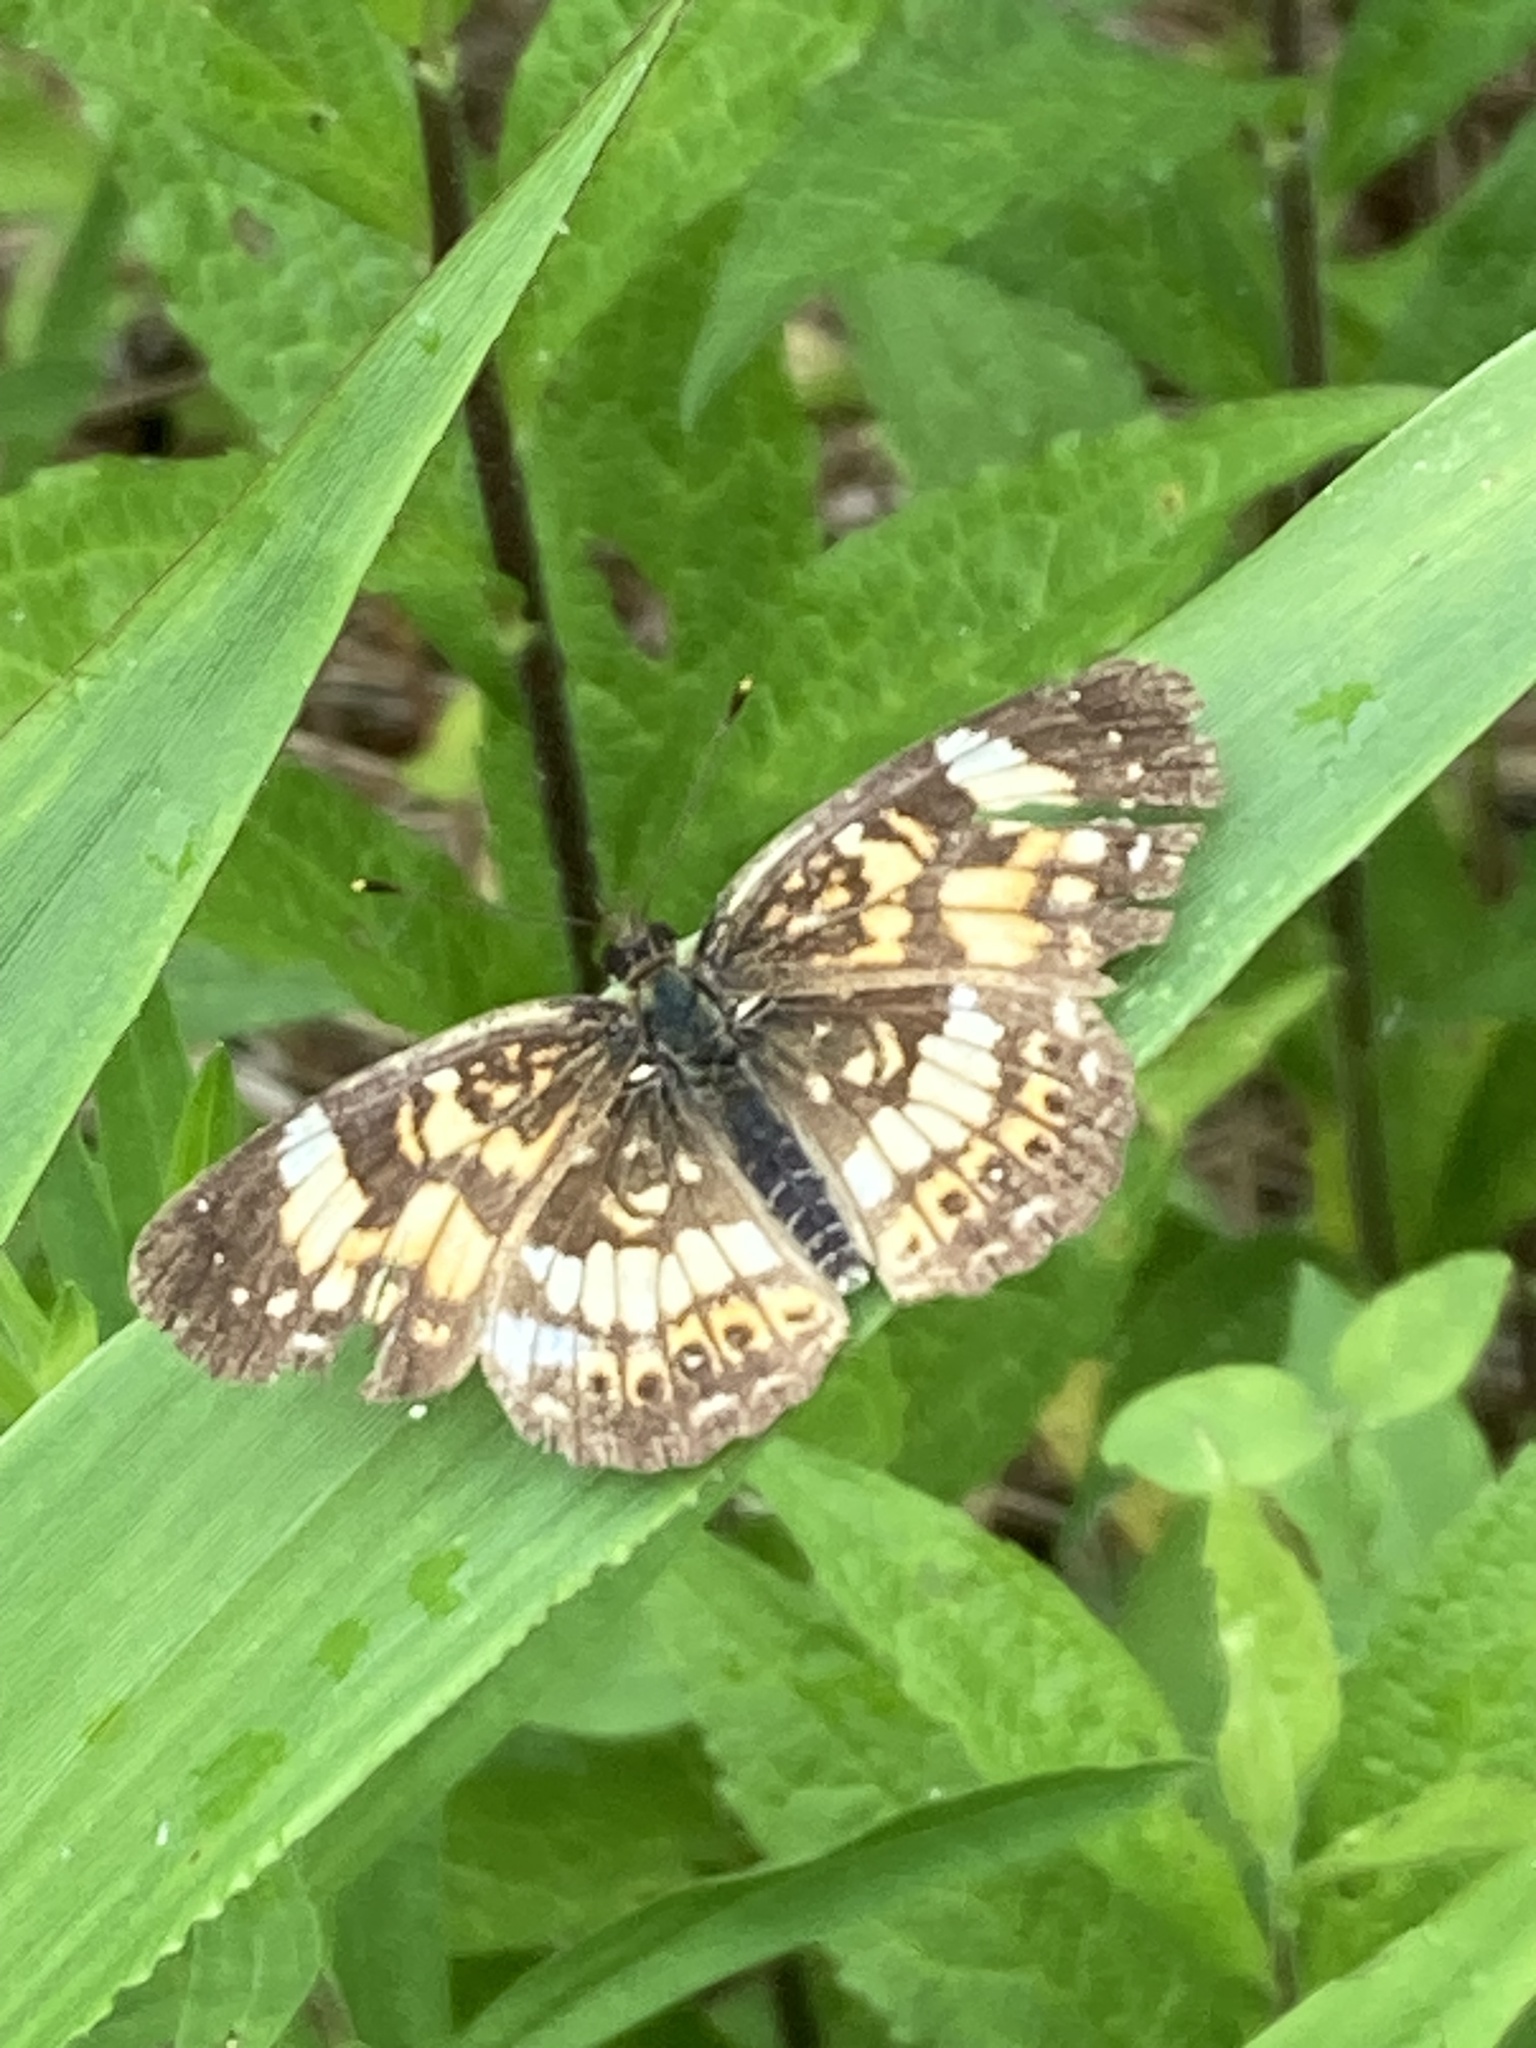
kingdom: Animalia
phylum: Arthropoda
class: Insecta
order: Lepidoptera
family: Nymphalidae
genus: Chlosyne
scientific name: Chlosyne nycteis
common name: Silvery checkerspot
